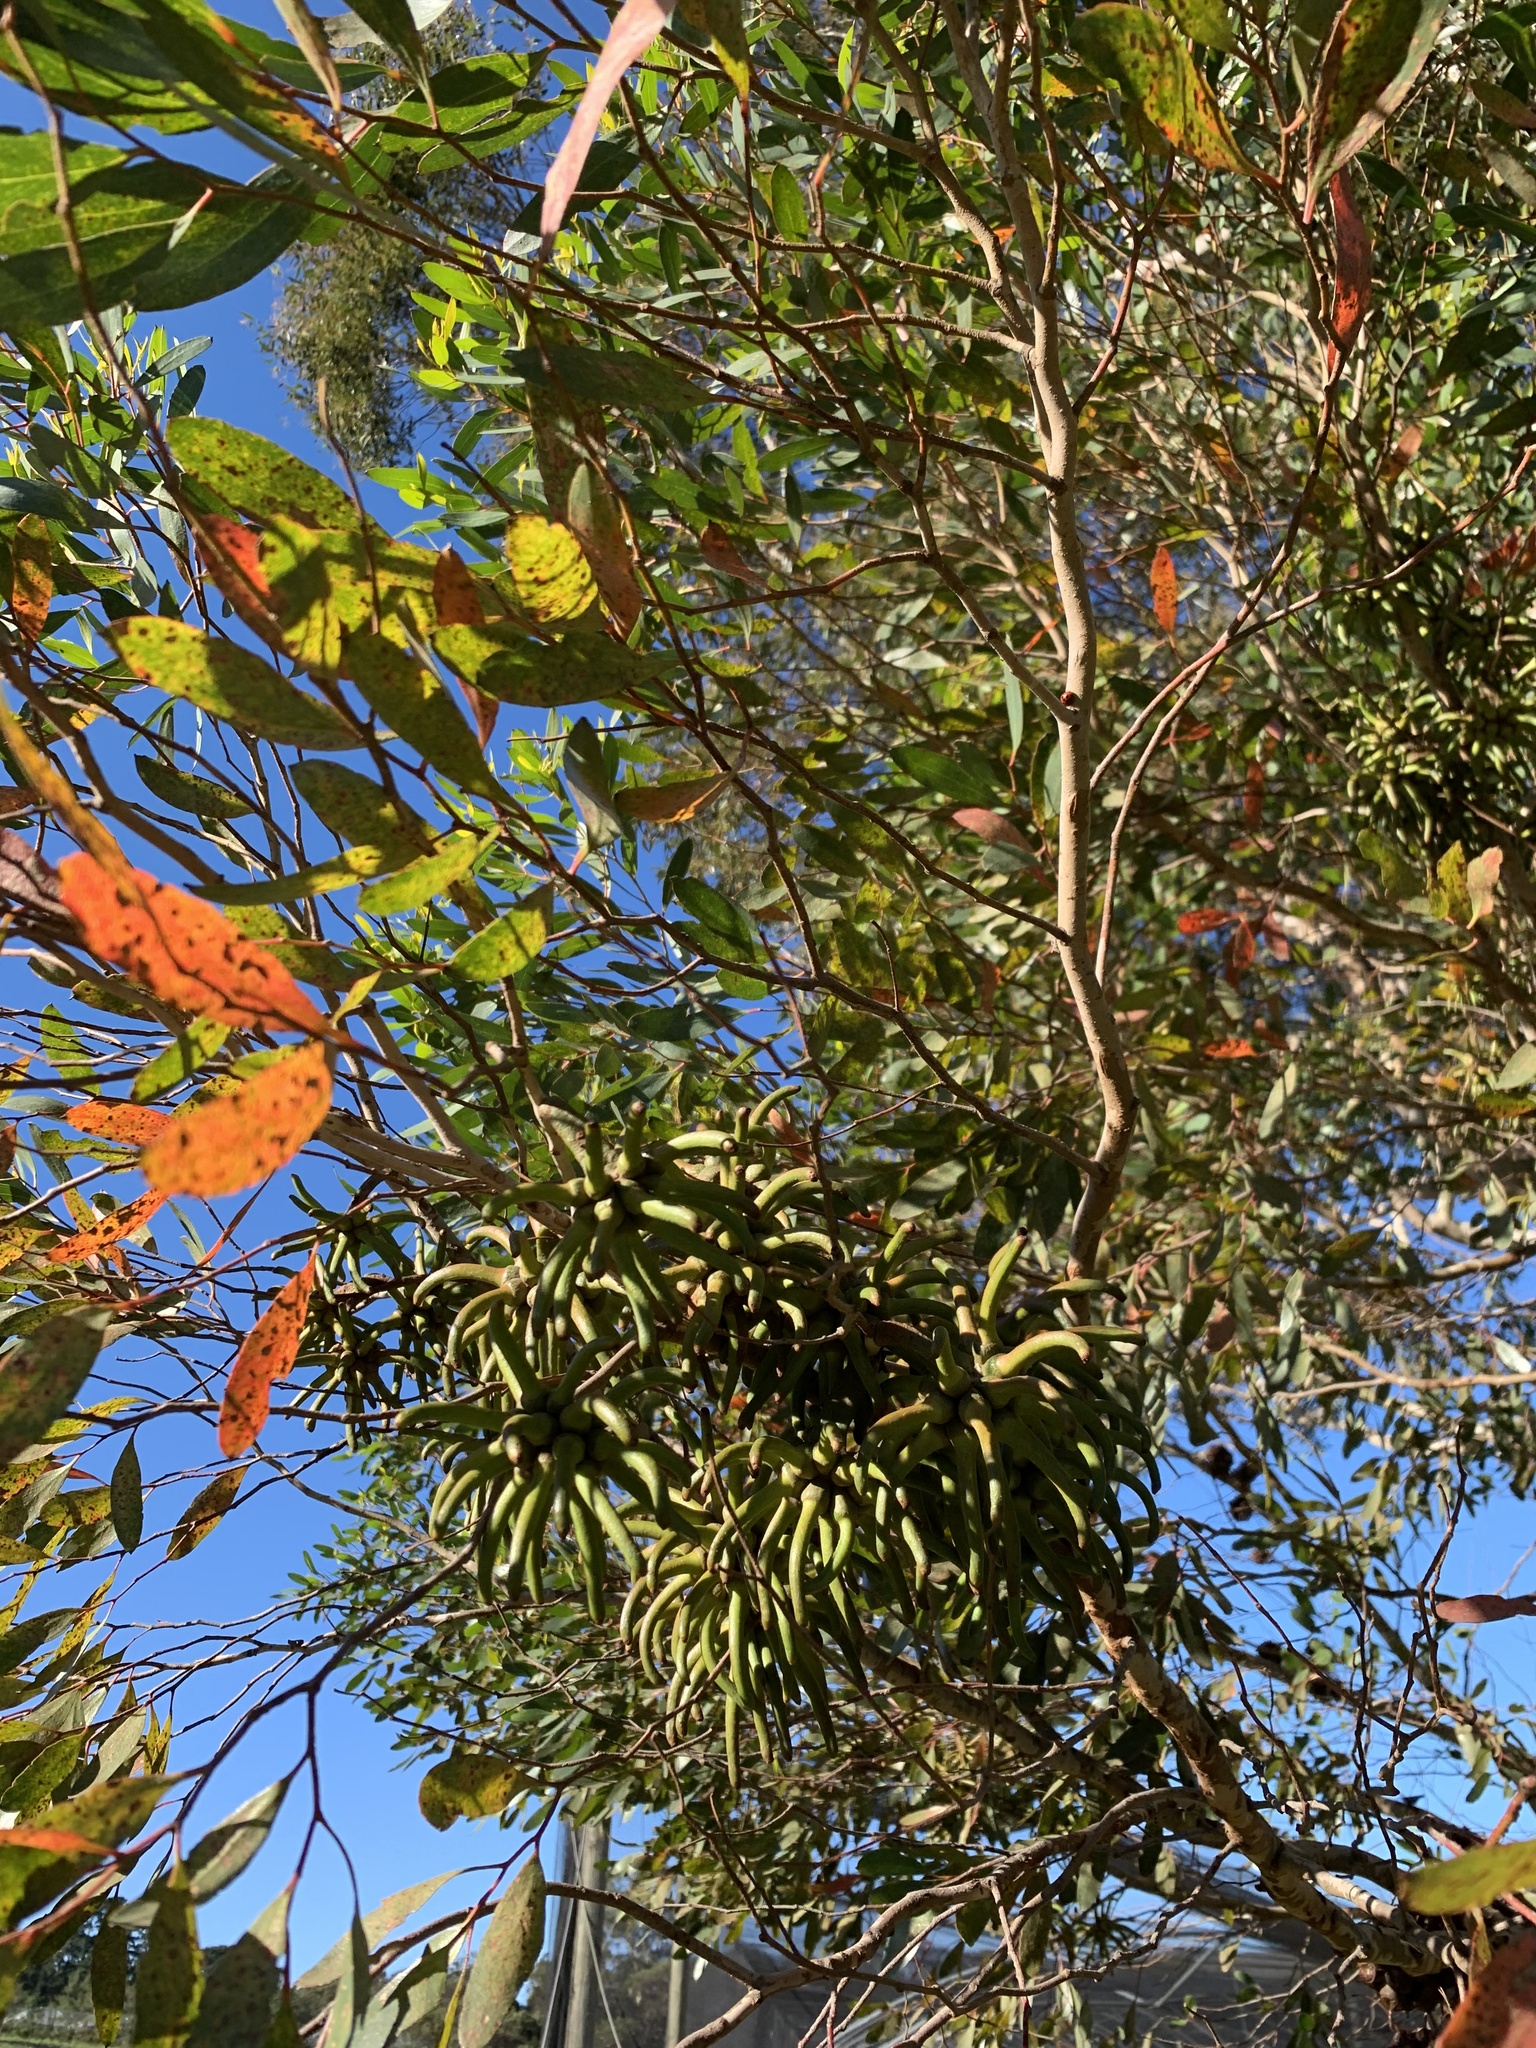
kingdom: Plantae
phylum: Tracheophyta
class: Magnoliopsida
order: Myrtales
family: Myrtaceae
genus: Eucalyptus
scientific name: Eucalyptus conferruminata
